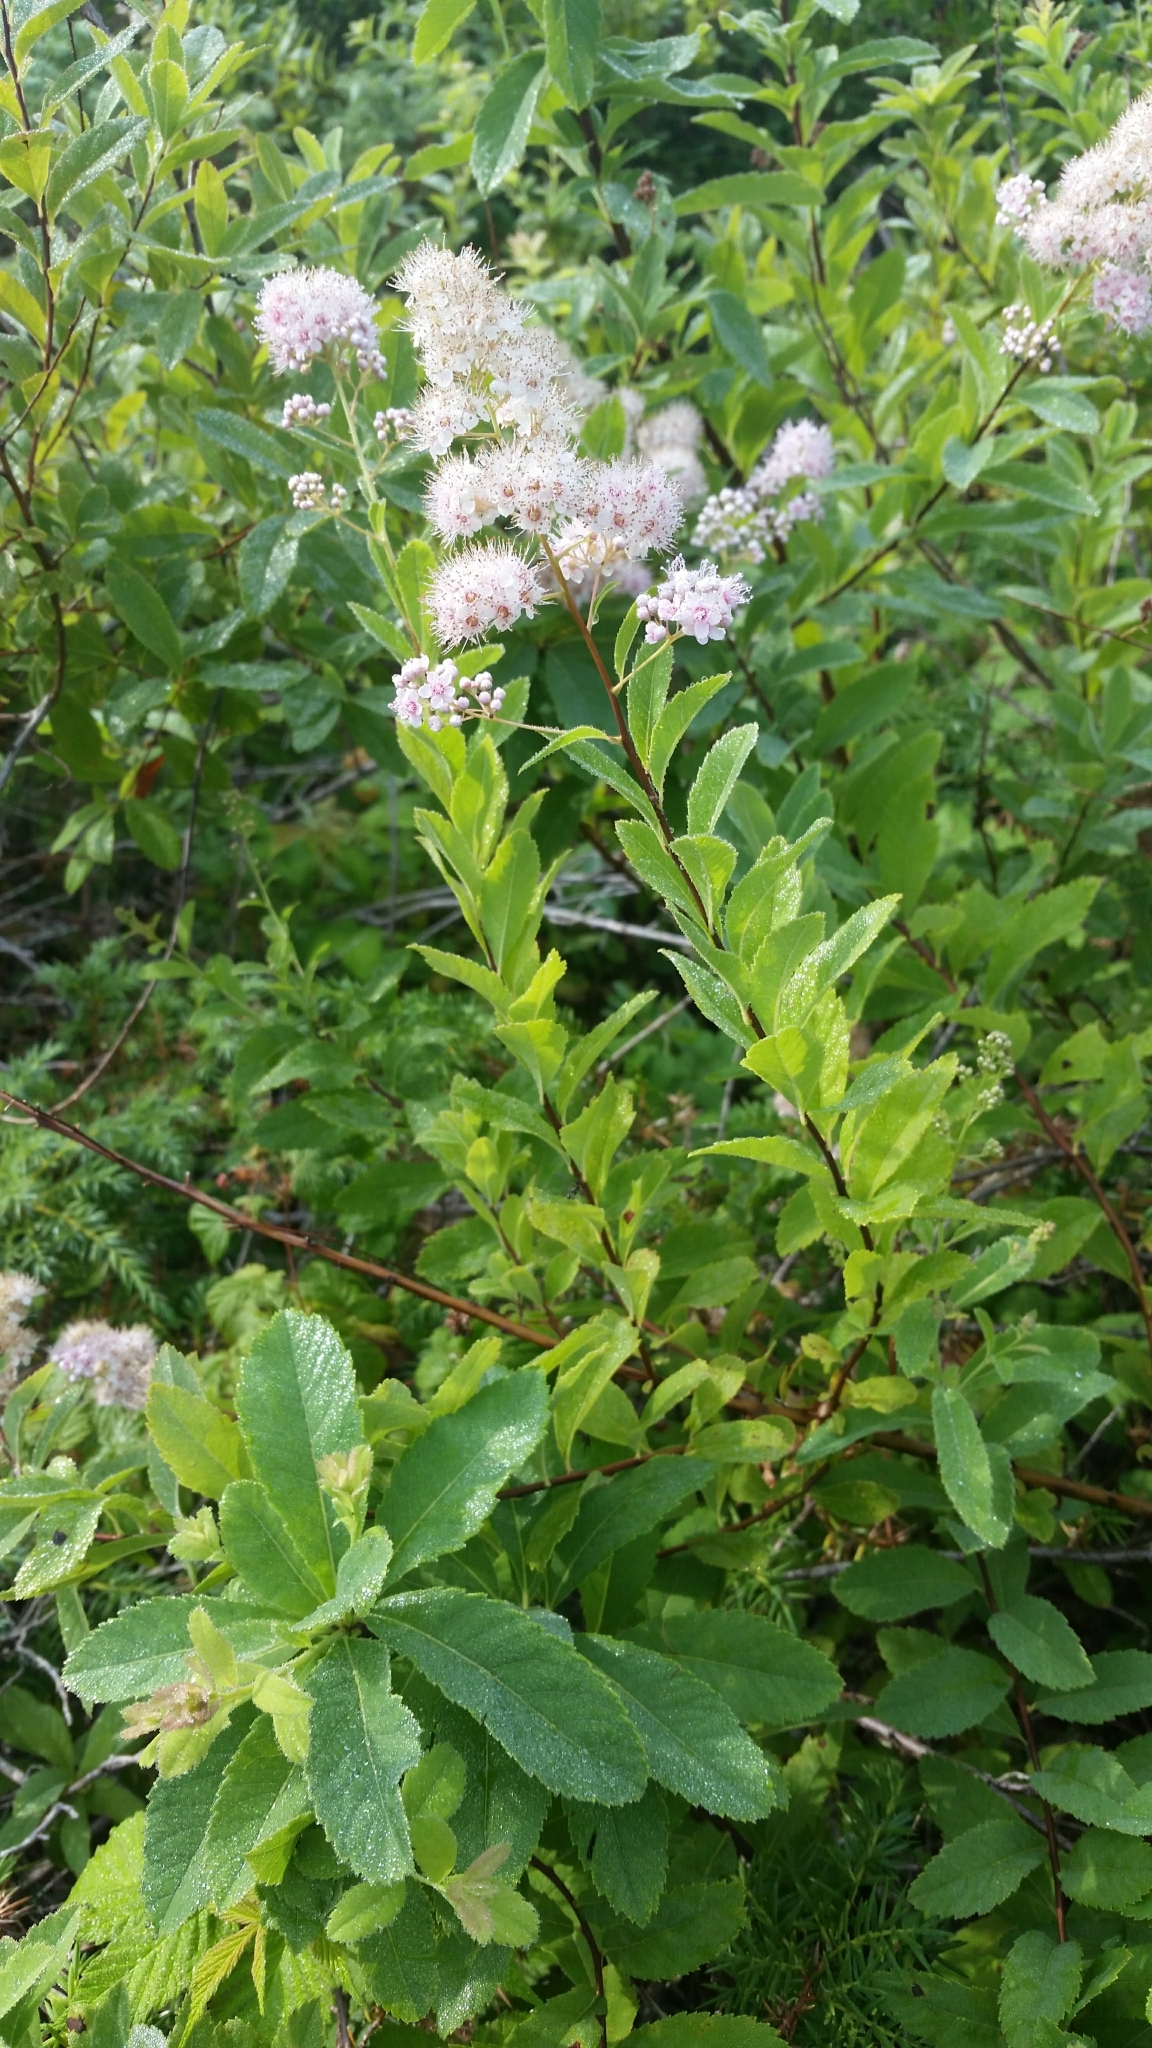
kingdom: Plantae
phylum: Tracheophyta
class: Magnoliopsida
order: Rosales
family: Rosaceae
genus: Spiraea
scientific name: Spiraea alba
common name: Pale bridewort
